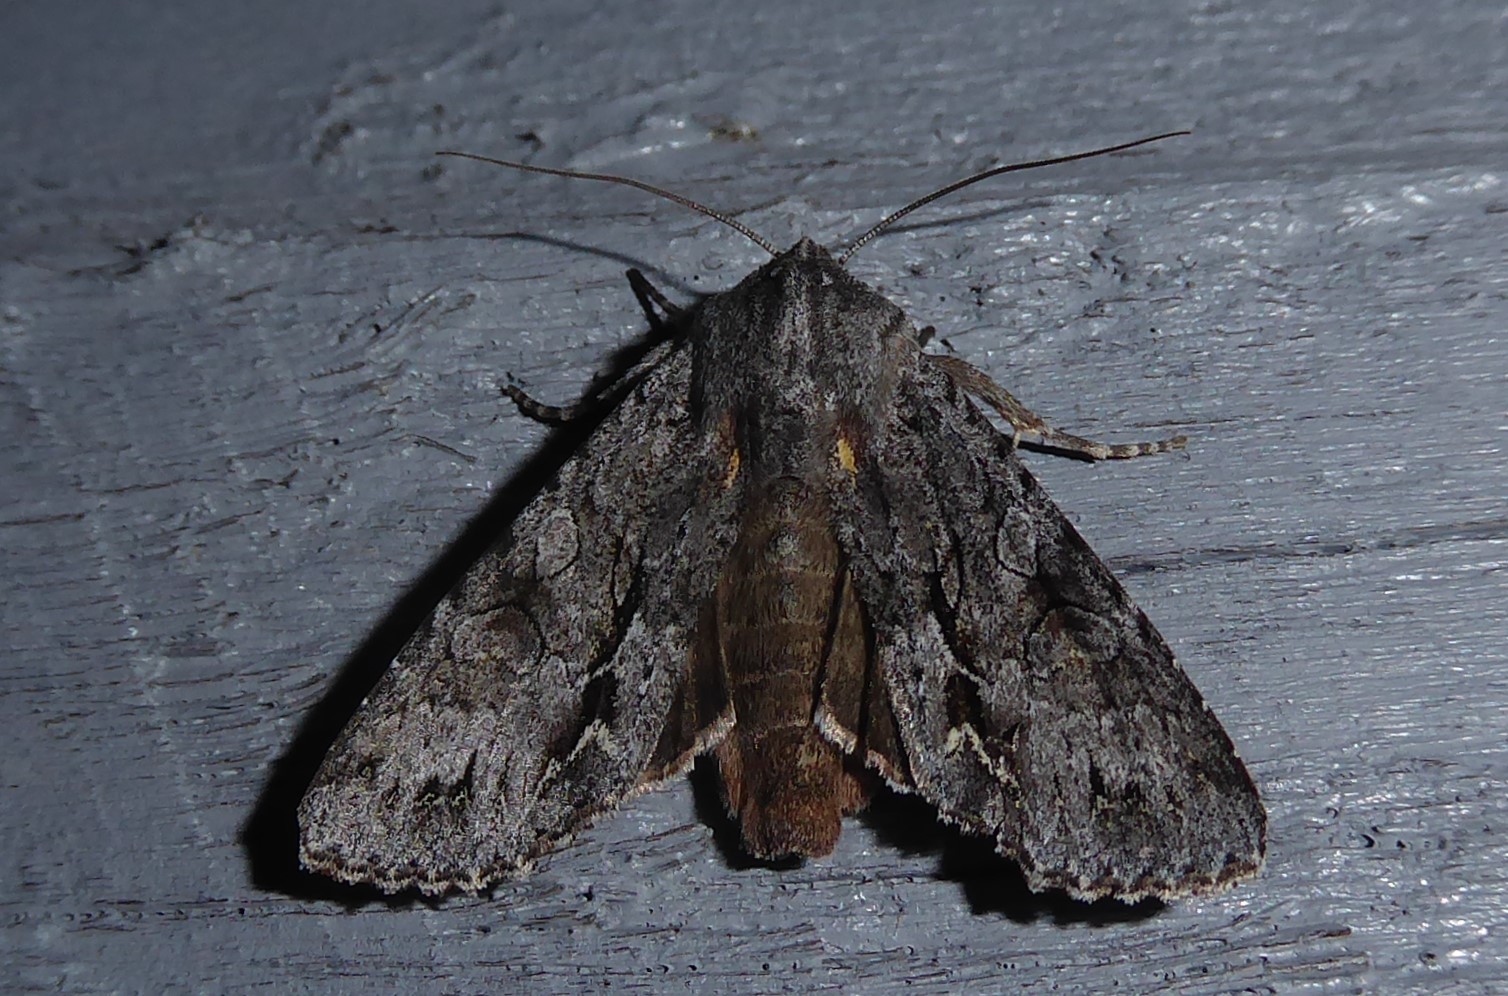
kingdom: Animalia
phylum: Arthropoda
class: Insecta
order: Lepidoptera
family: Noctuidae
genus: Ichneutica
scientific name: Ichneutica
